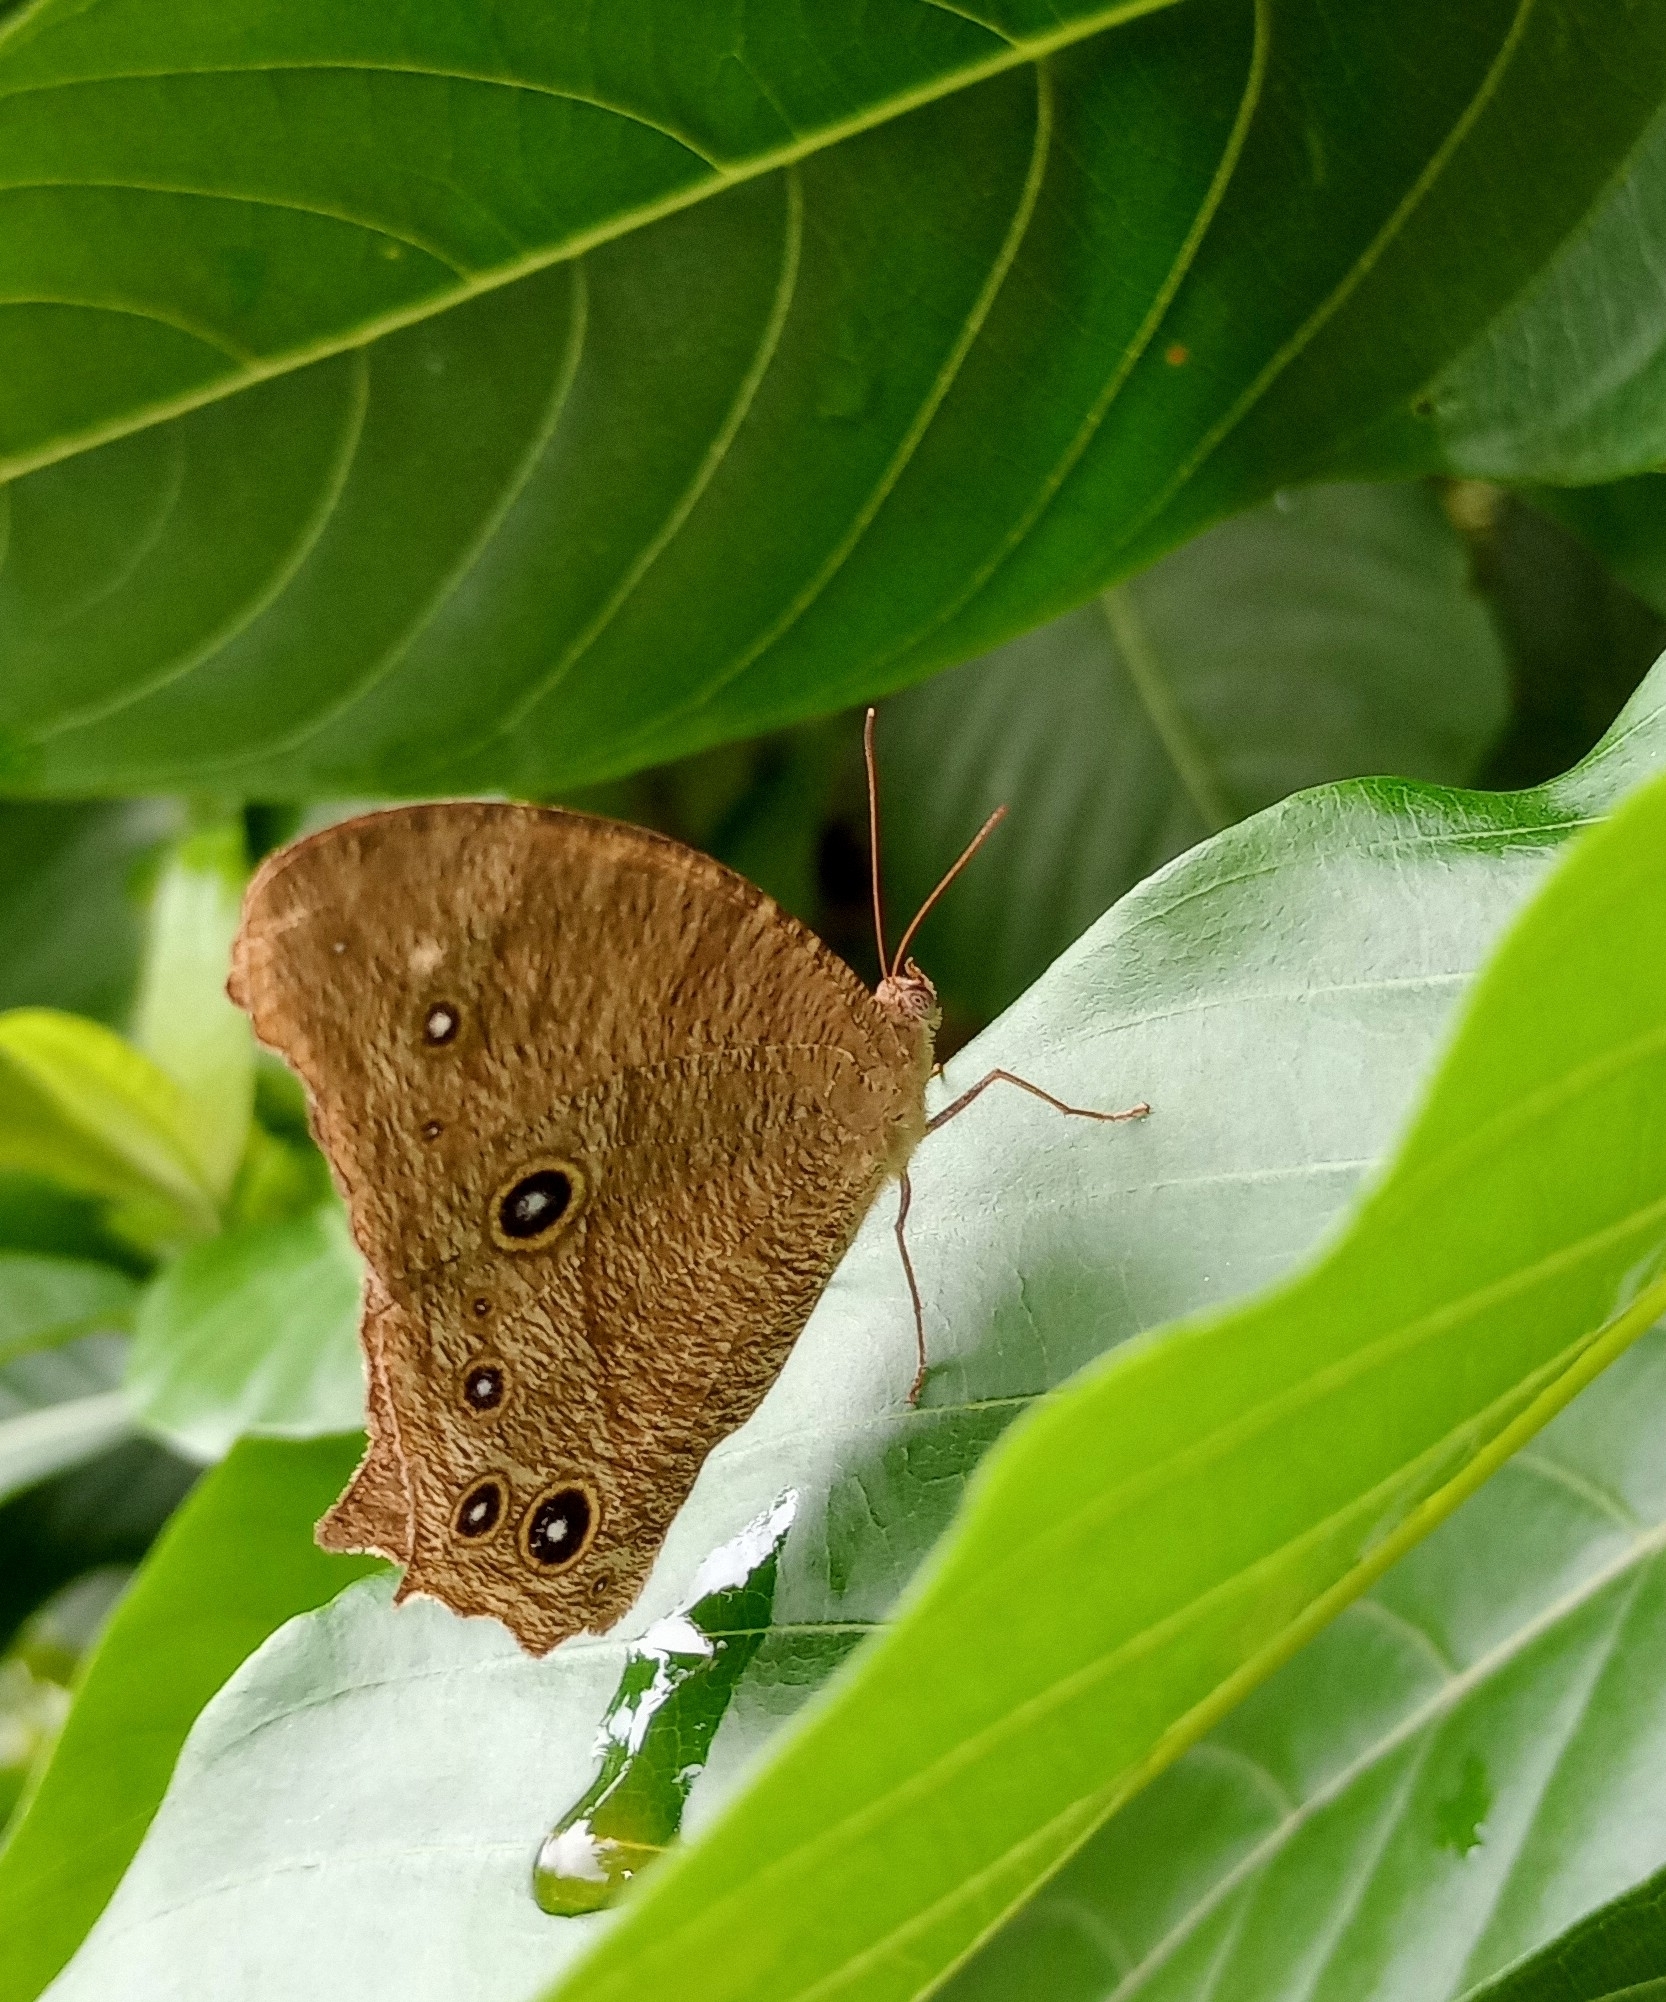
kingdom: Animalia
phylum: Arthropoda
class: Insecta
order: Lepidoptera
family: Nymphalidae
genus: Melanitis
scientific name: Melanitis leda
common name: Twilight brown
